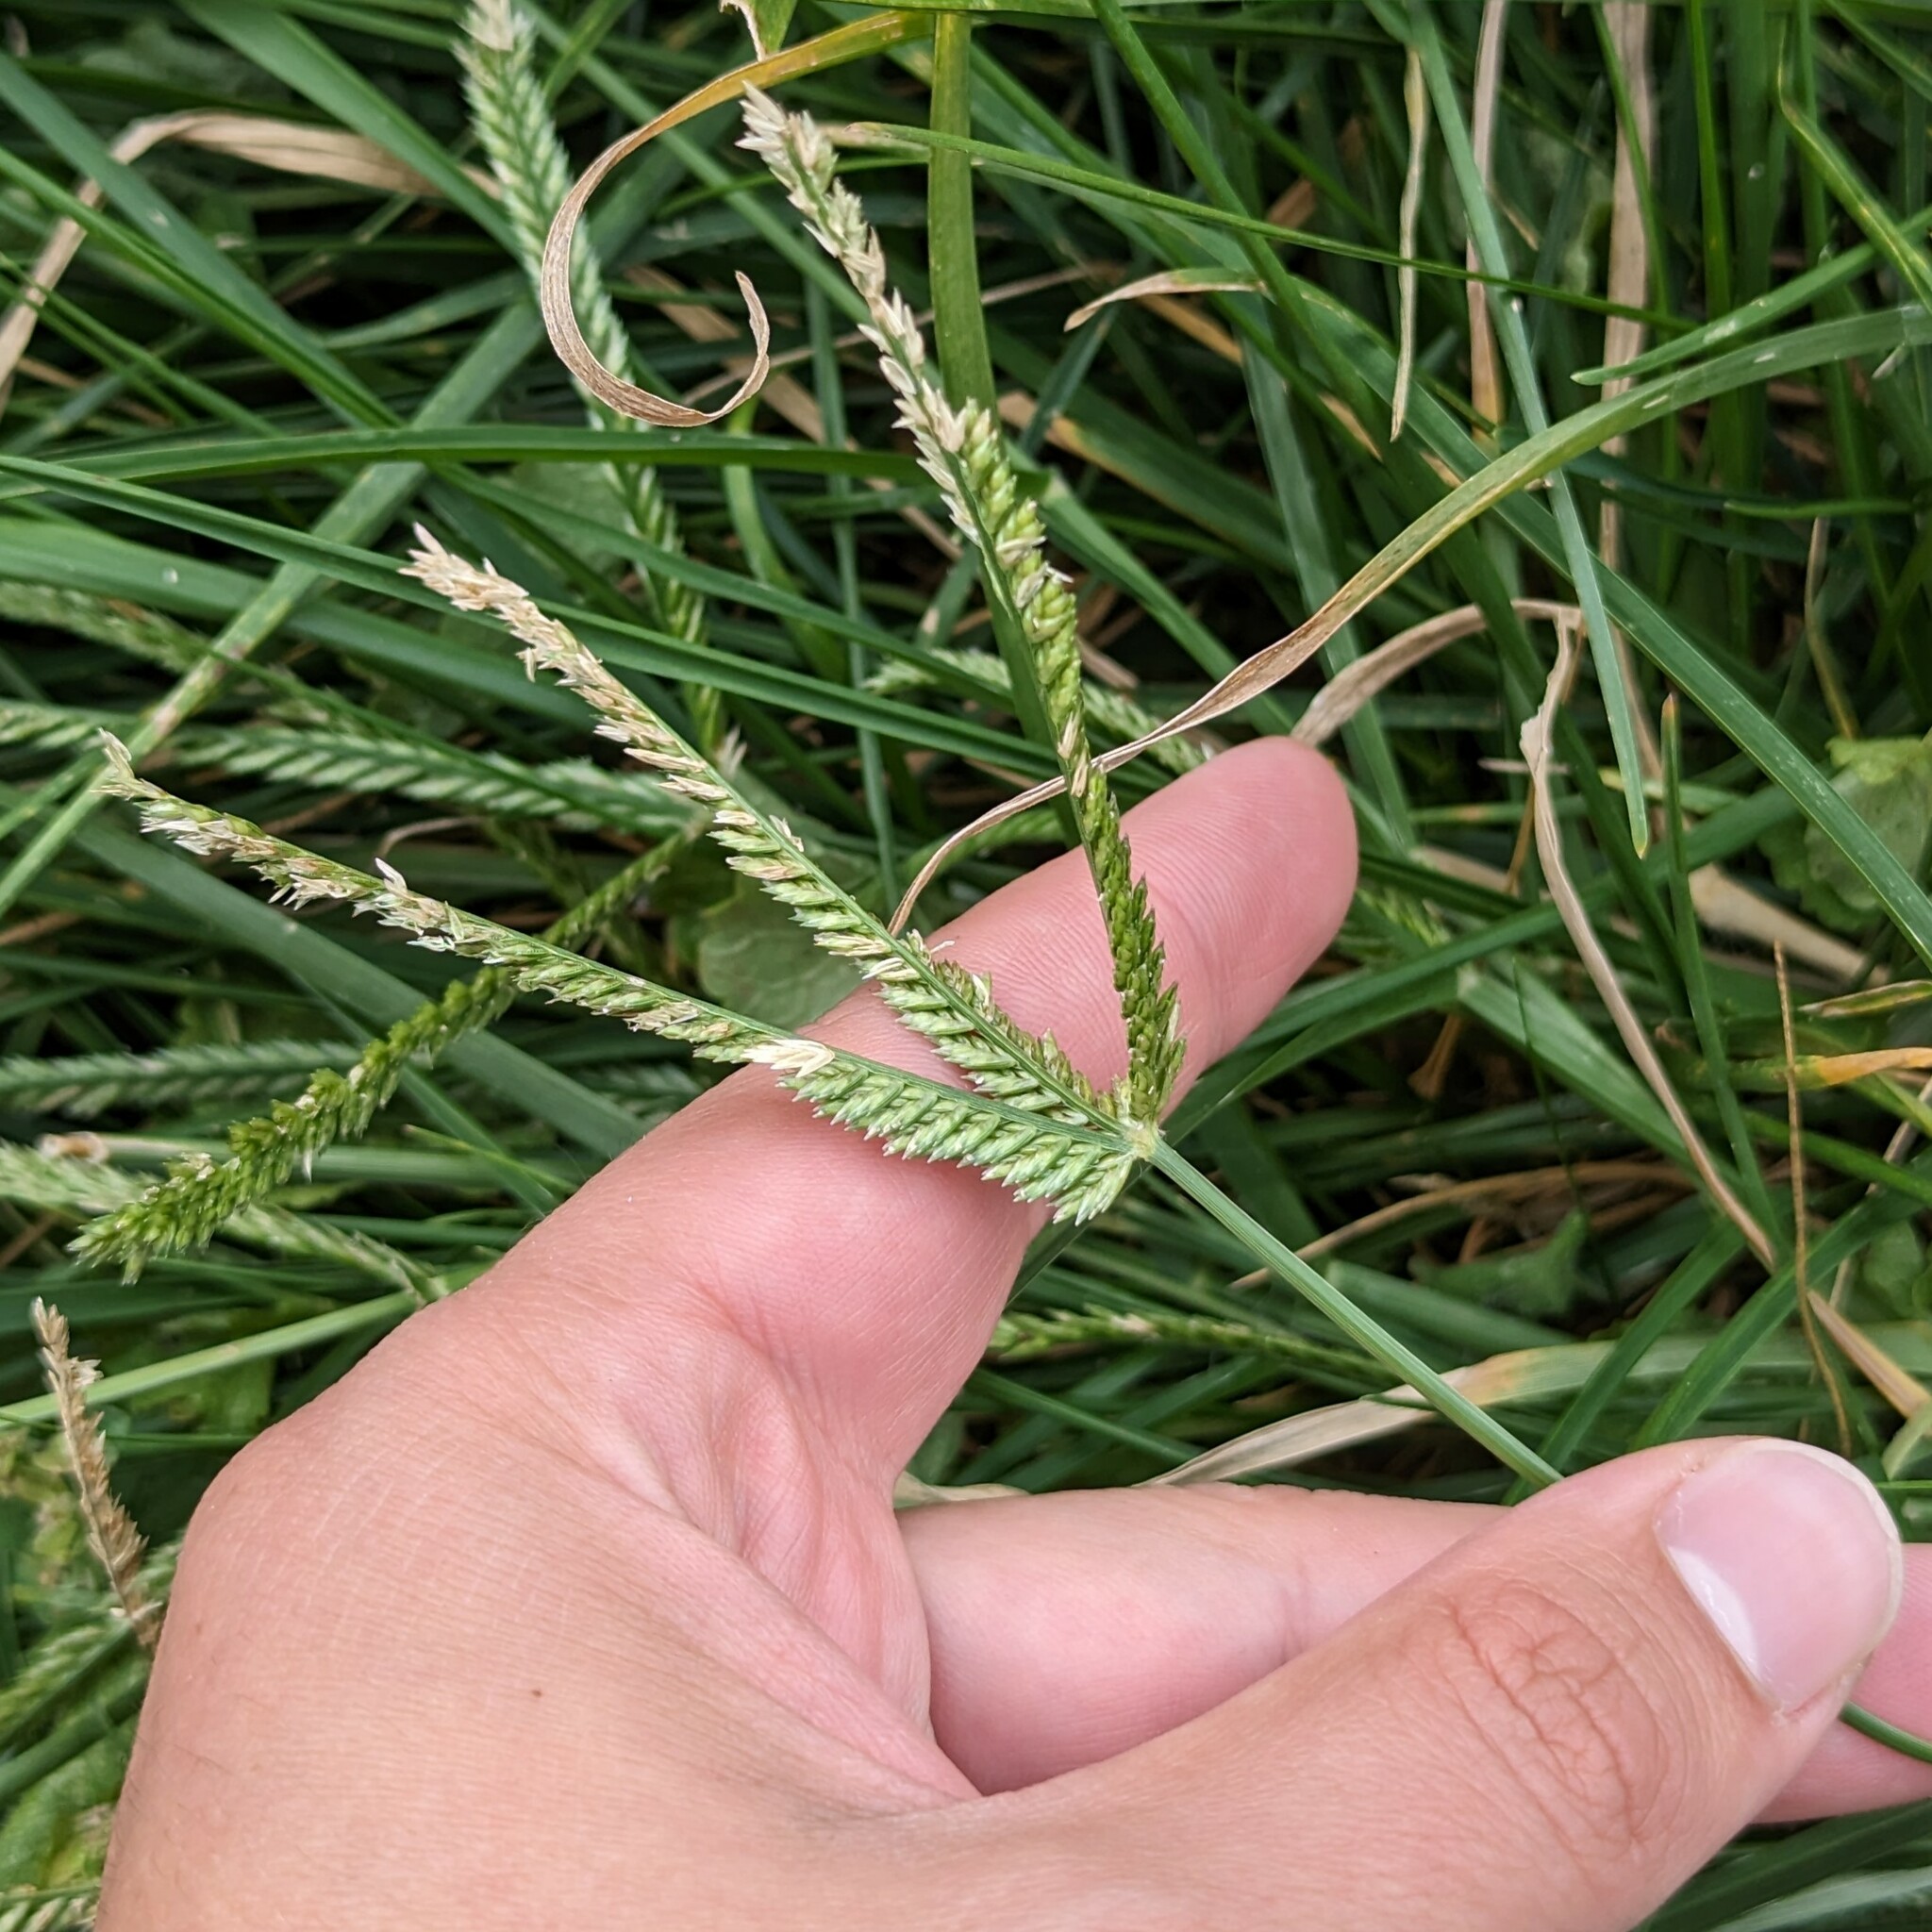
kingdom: Plantae
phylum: Tracheophyta
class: Liliopsida
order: Poales
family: Poaceae
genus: Eleusine
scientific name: Eleusine indica
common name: Yard-grass
